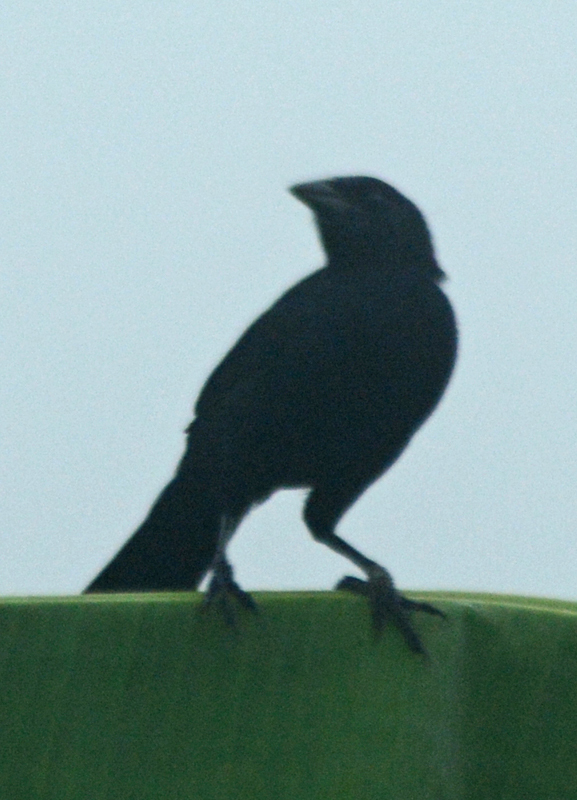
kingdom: Animalia
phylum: Chordata
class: Aves
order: Passeriformes
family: Icteridae
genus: Dives
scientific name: Dives dives
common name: Melodious blackbird
